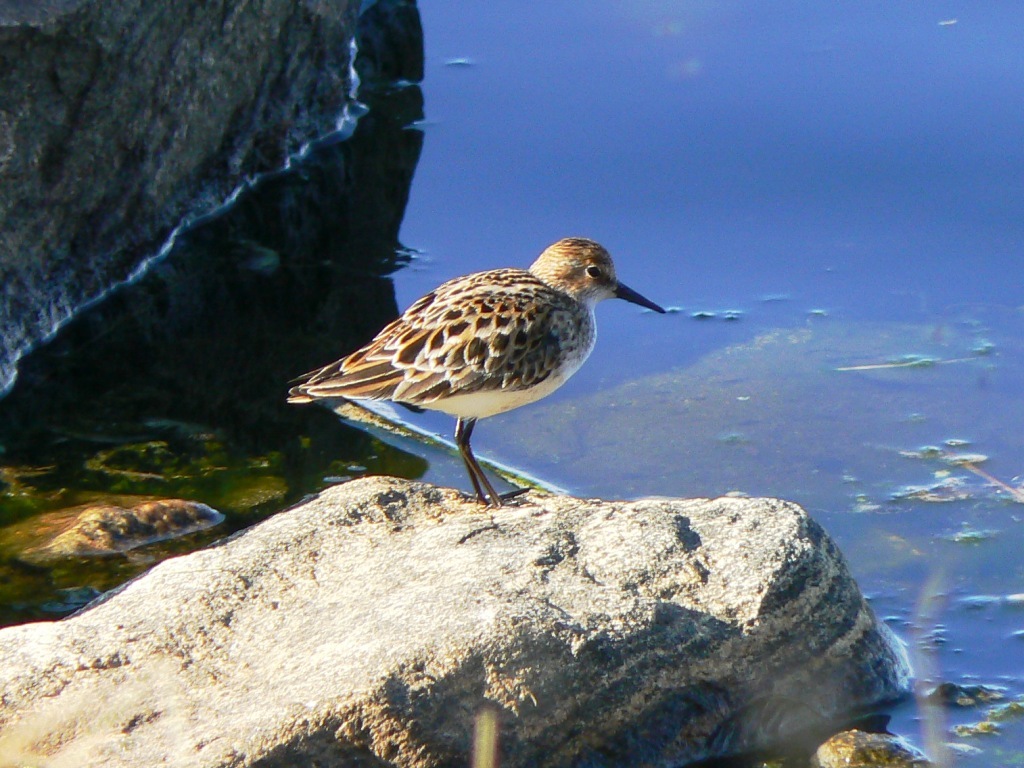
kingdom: Animalia
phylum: Chordata
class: Aves
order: Charadriiformes
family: Scolopacidae
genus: Calidris
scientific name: Calidris minuta
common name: Little stint
